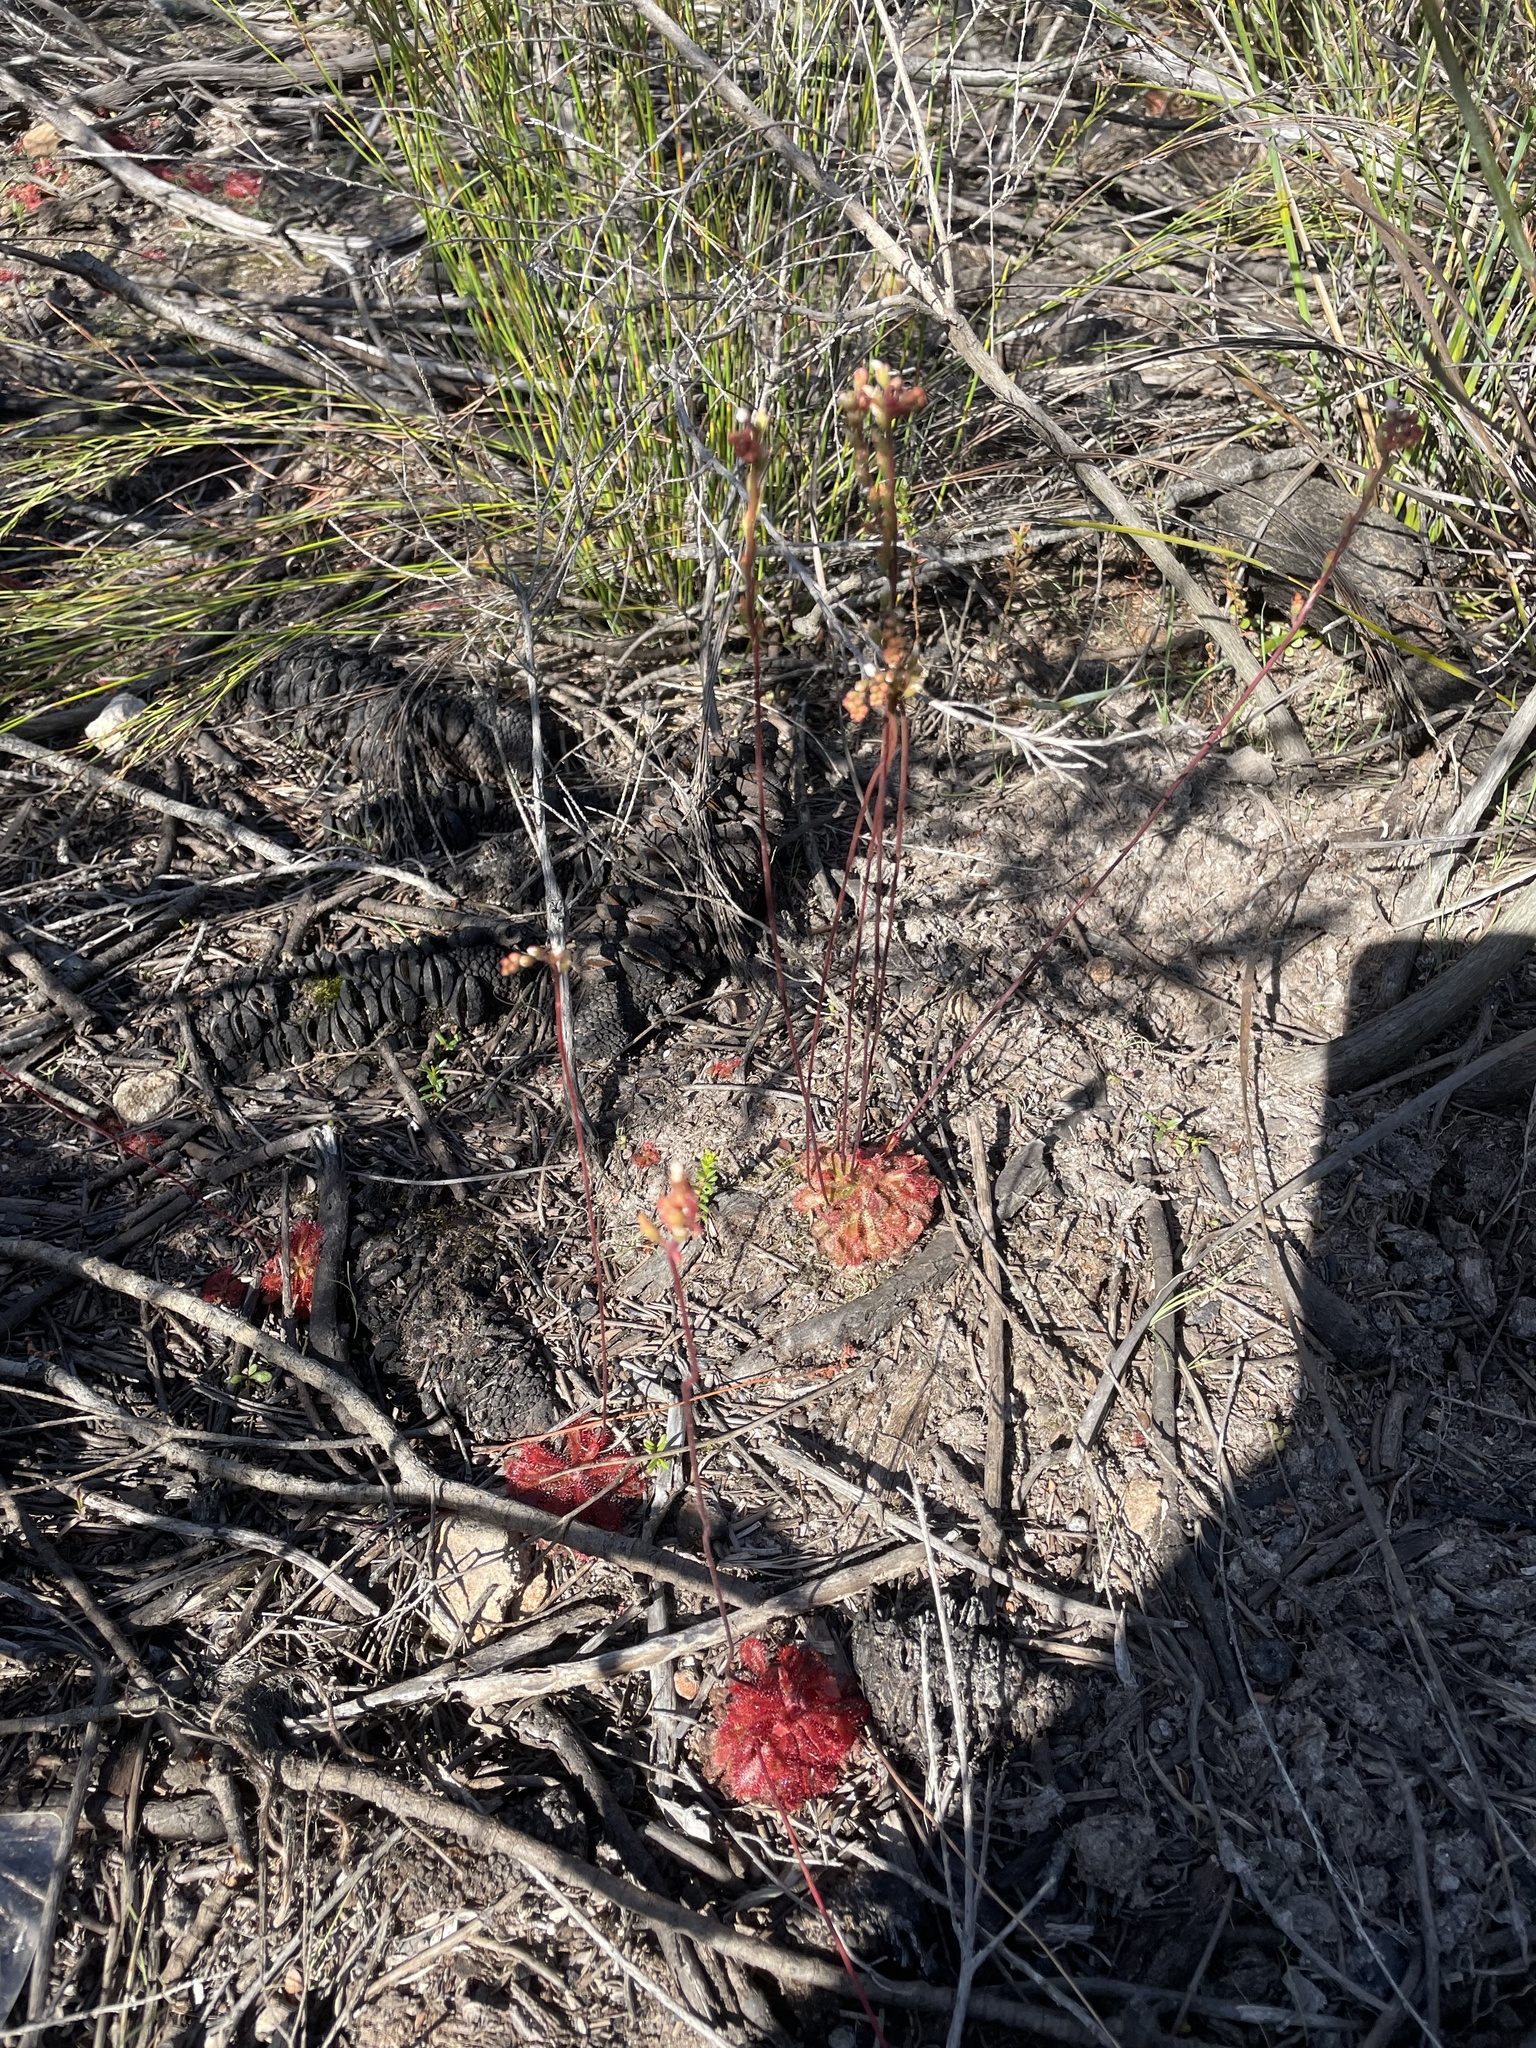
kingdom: Plantae
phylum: Tracheophyta
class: Magnoliopsida
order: Caryophyllales
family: Droseraceae
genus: Drosera
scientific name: Drosera spatulata
